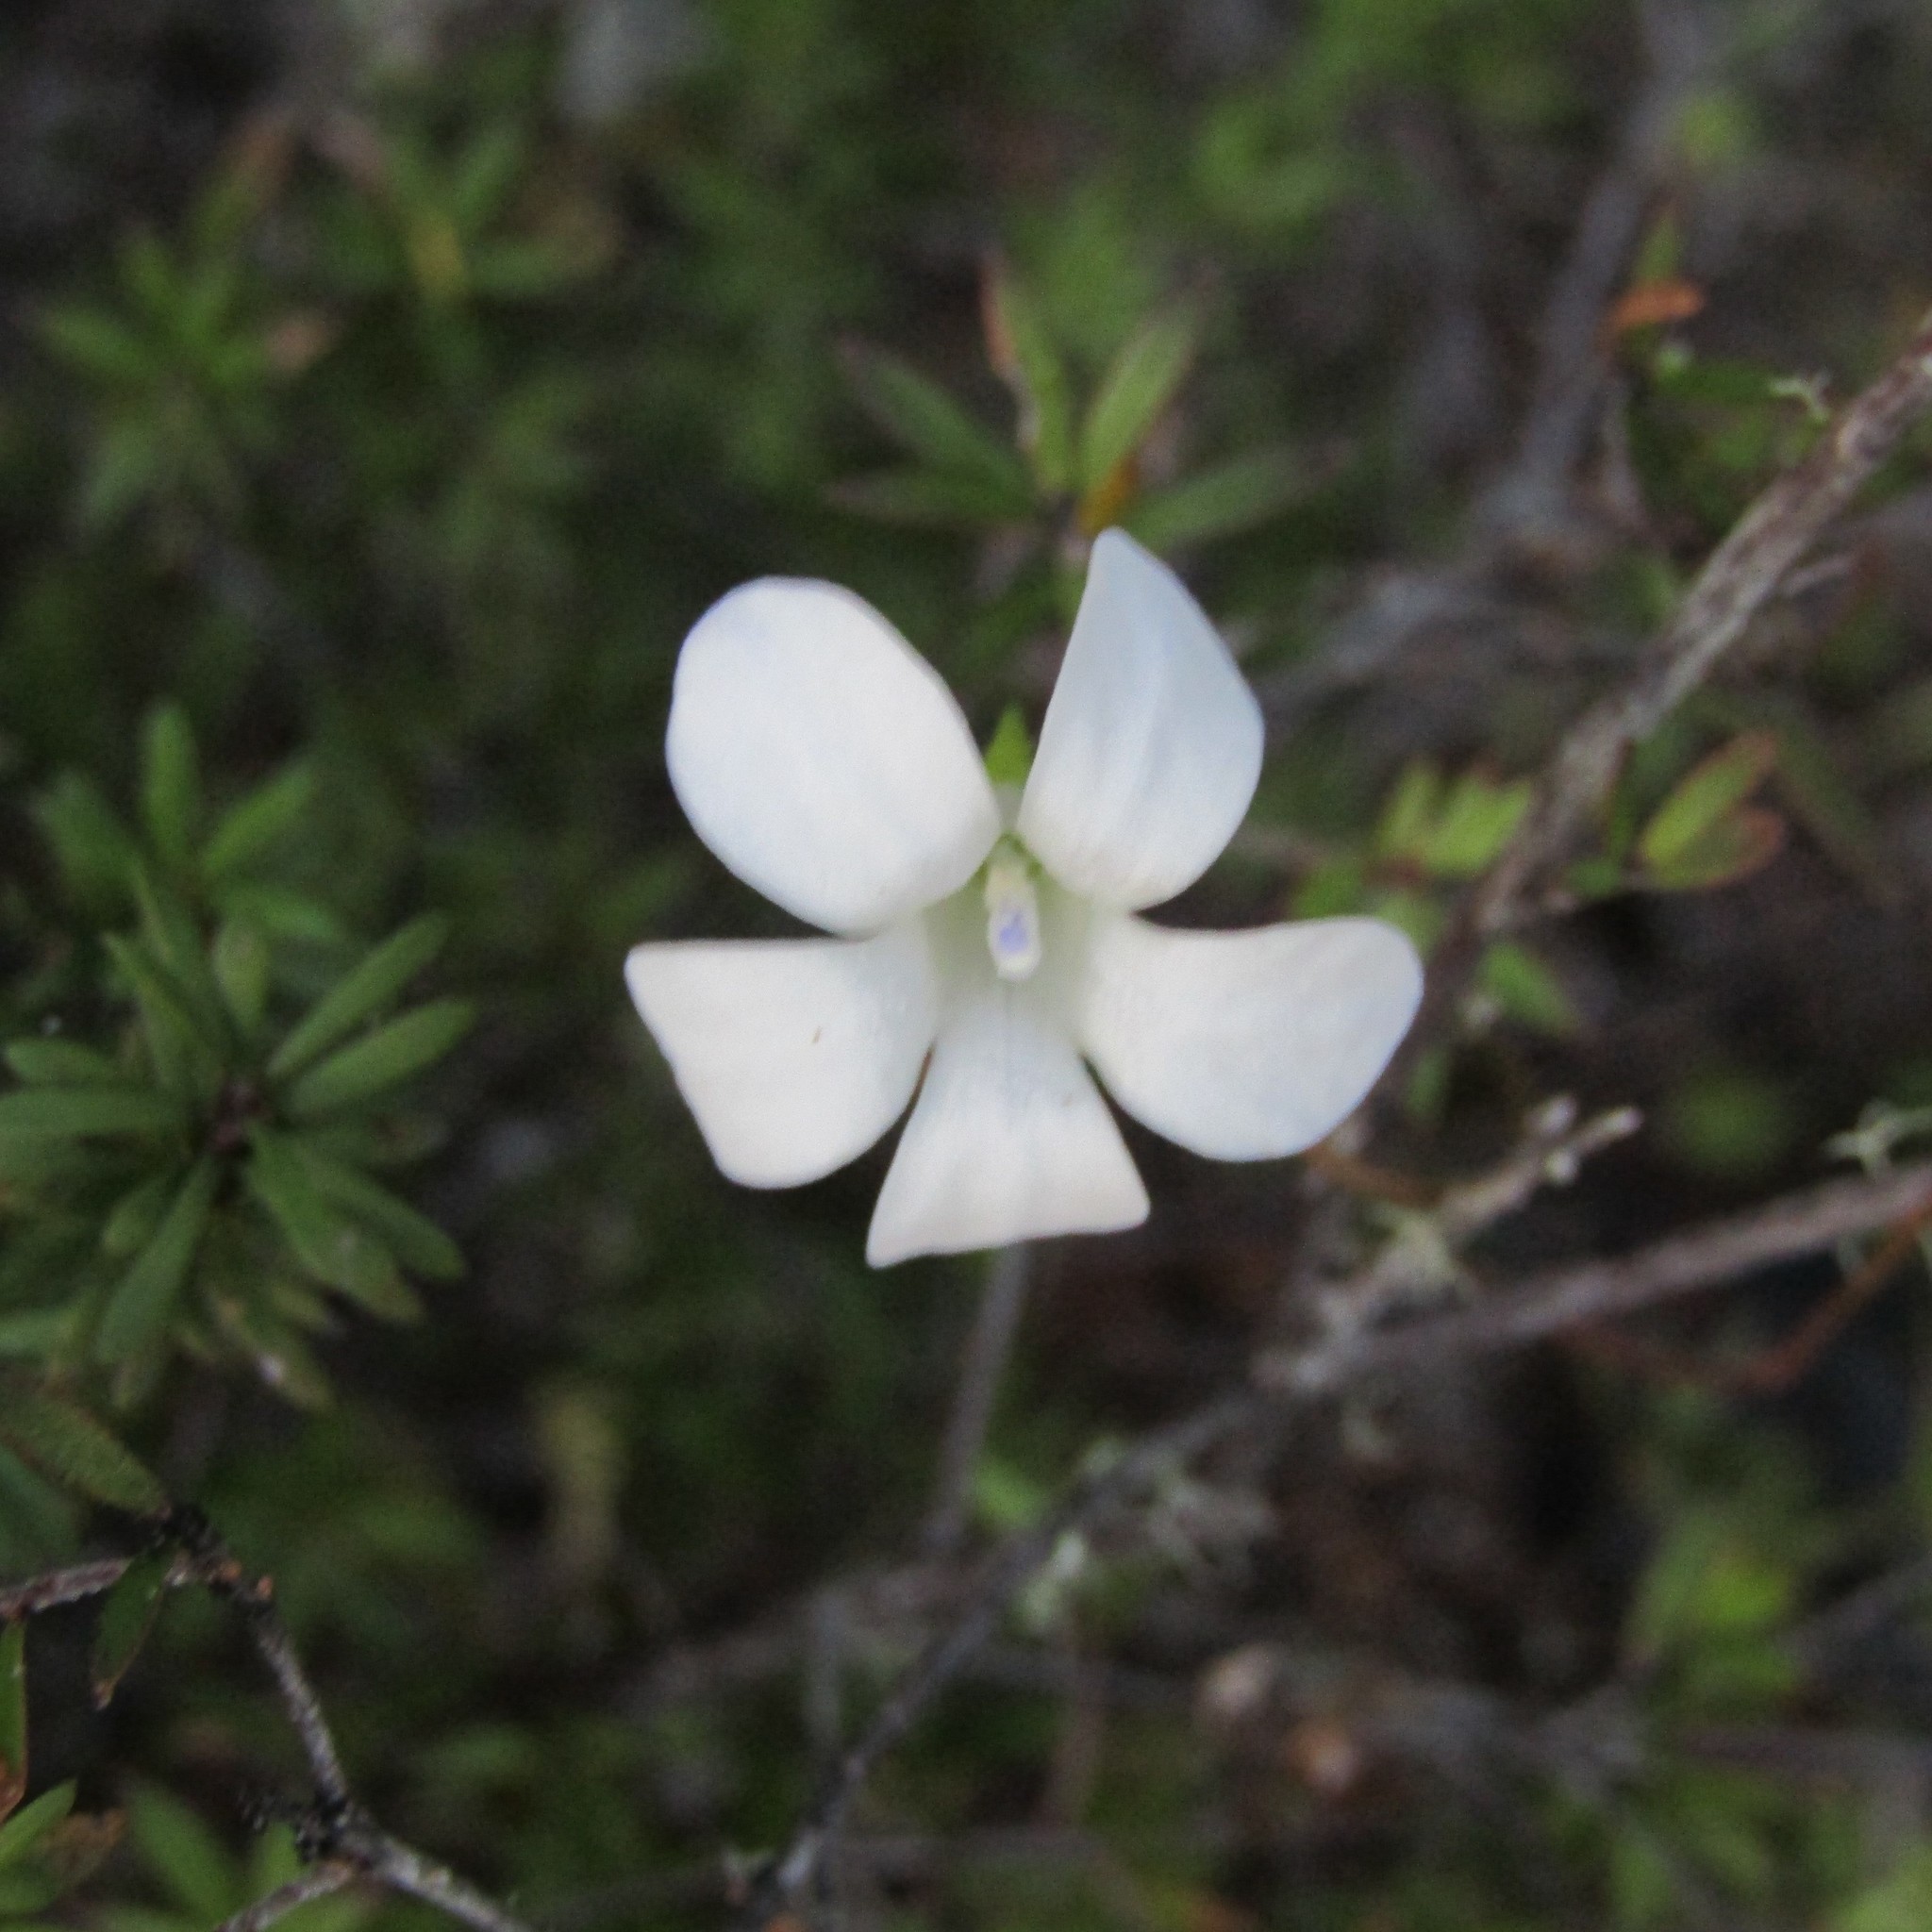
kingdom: Plantae
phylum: Tracheophyta
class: Magnoliopsida
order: Asterales
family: Campanulaceae
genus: Wahlenbergia
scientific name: Wahlenbergia albomarginata
